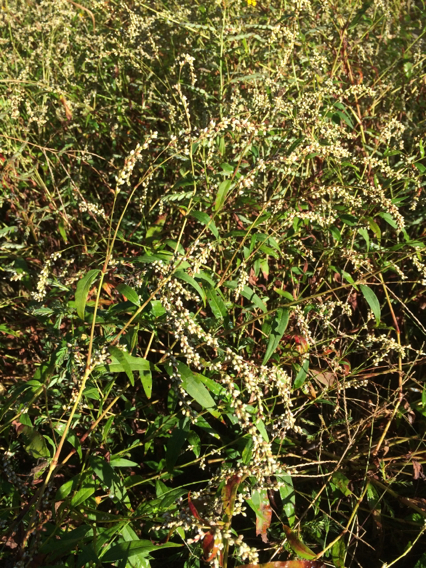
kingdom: Plantae
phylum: Tracheophyta
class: Magnoliopsida
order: Caryophyllales
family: Polygonaceae
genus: Persicaria
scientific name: Persicaria hydropiperoides
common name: Swamp smartweed
